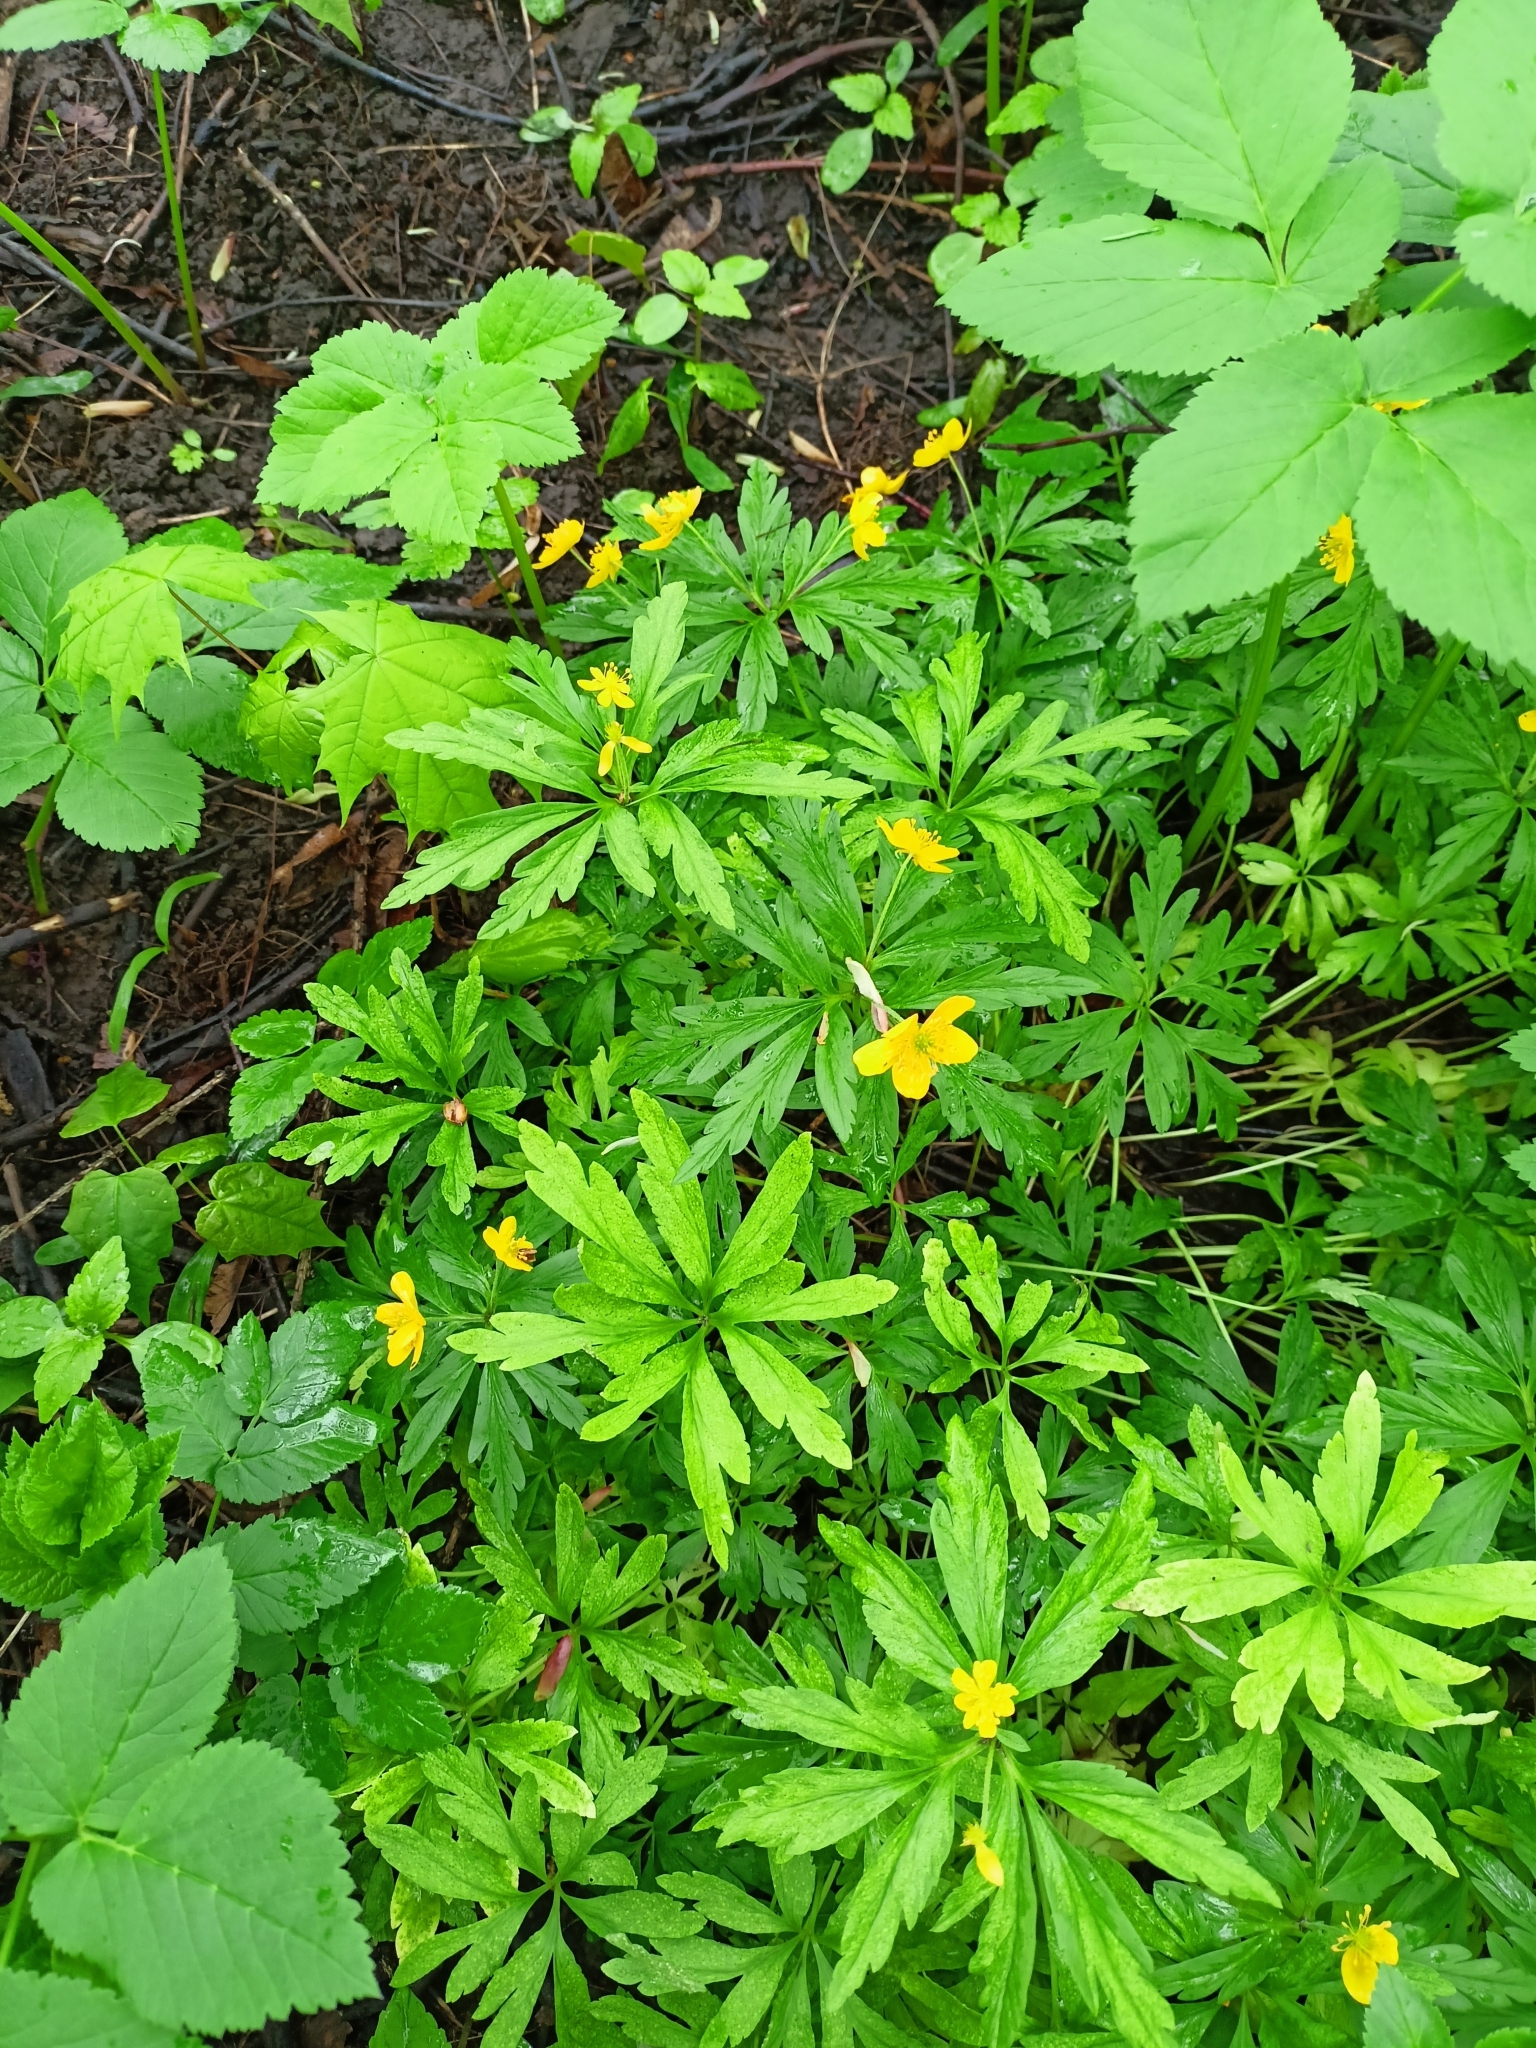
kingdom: Plantae
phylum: Tracheophyta
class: Magnoliopsida
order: Ranunculales
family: Ranunculaceae
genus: Anemone
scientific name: Anemone ranunculoides
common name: Yellow anemone
